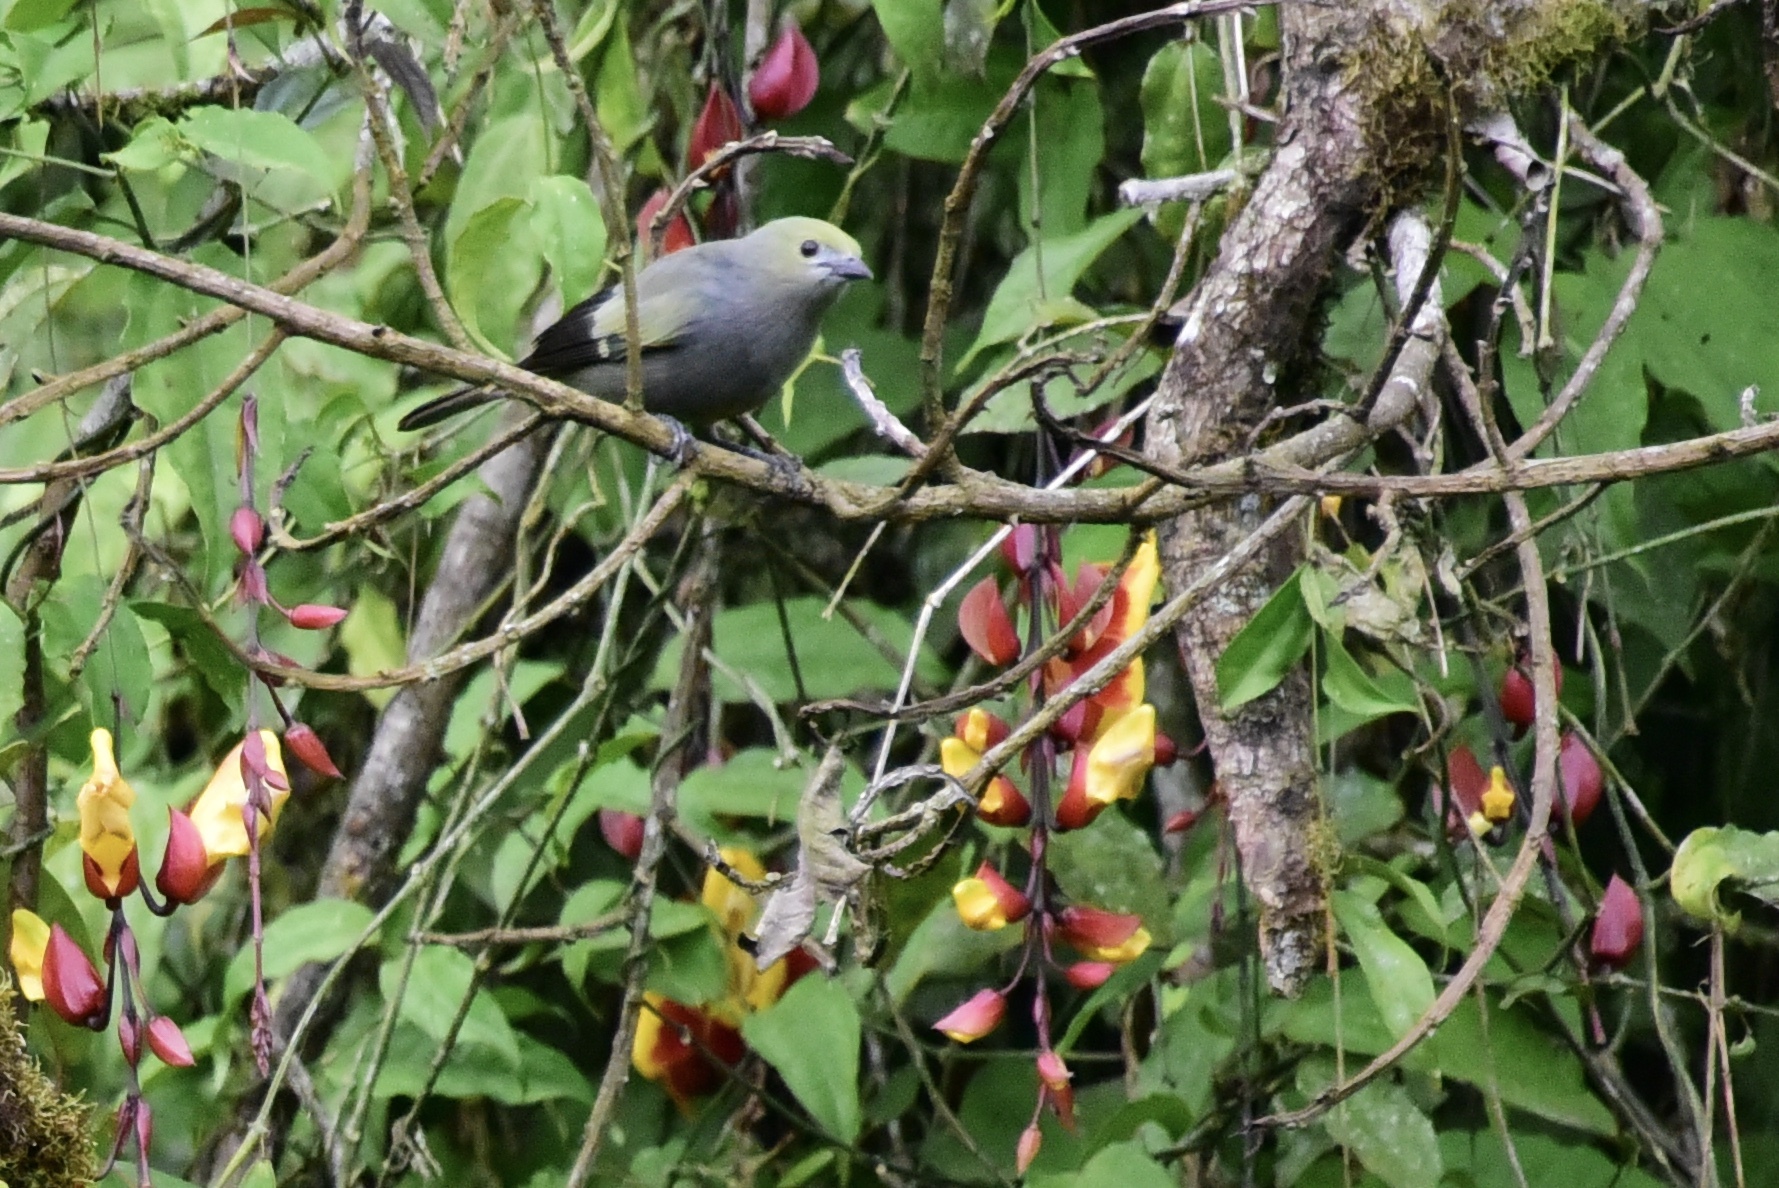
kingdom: Animalia
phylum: Chordata
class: Aves
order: Passeriformes
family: Thraupidae
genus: Thraupis
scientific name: Thraupis palmarum
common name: Palm tanager
